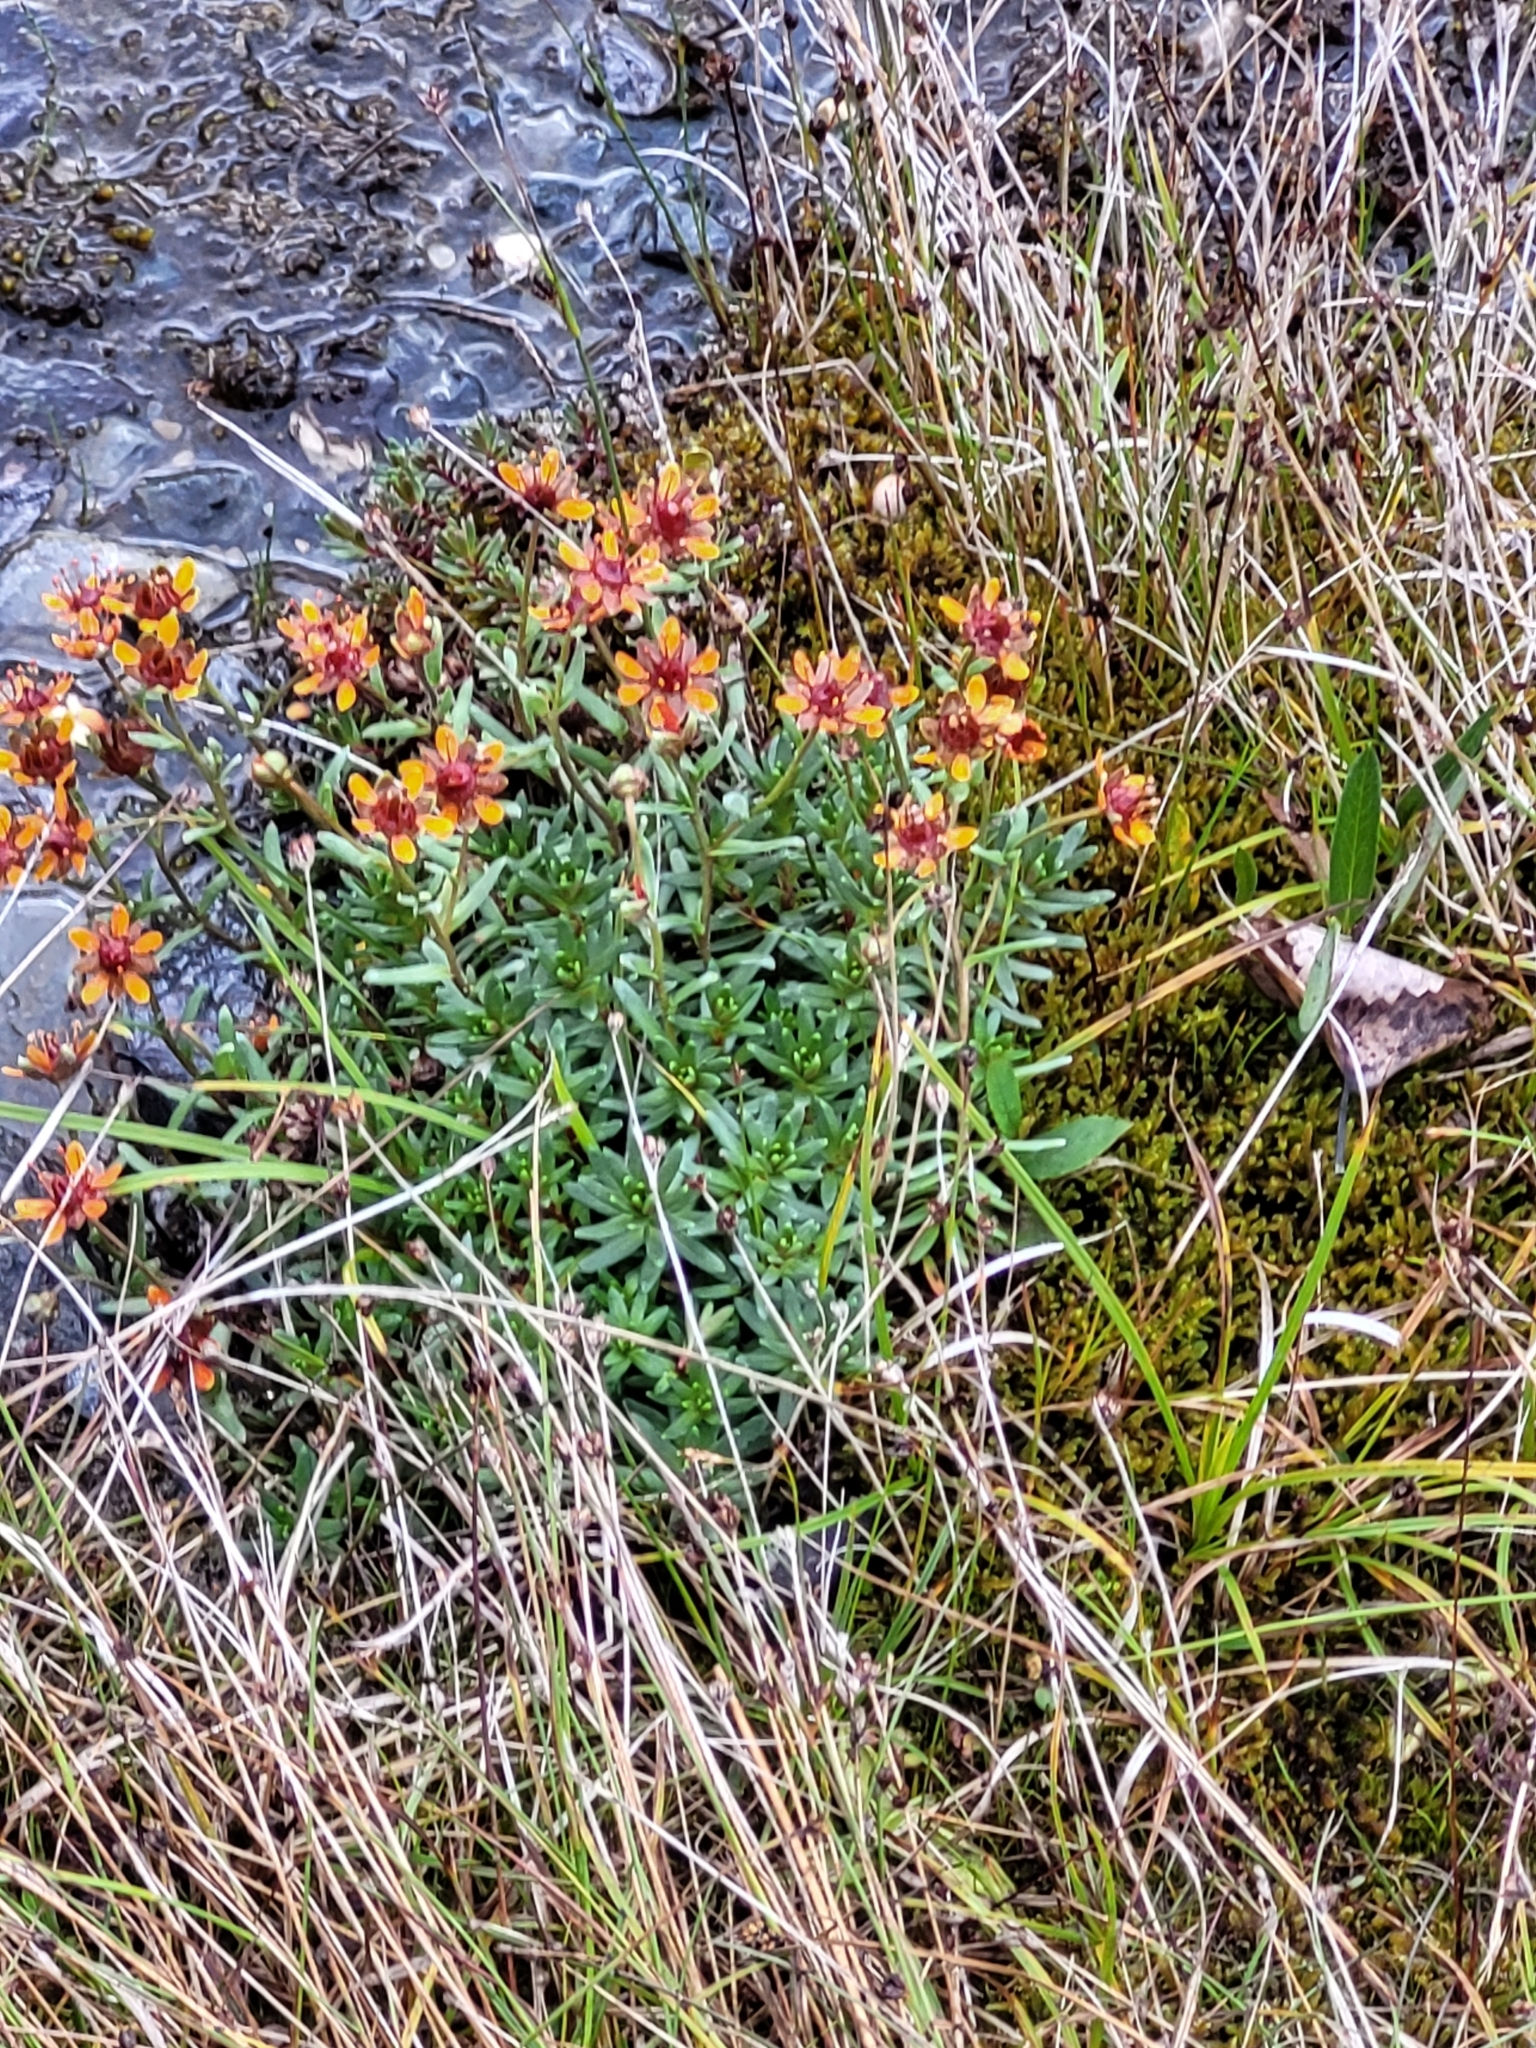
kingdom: Plantae
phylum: Tracheophyta
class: Magnoliopsida
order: Saxifragales
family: Saxifragaceae
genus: Saxifraga
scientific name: Saxifraga aizoides
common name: Yellow mountain saxifrage
